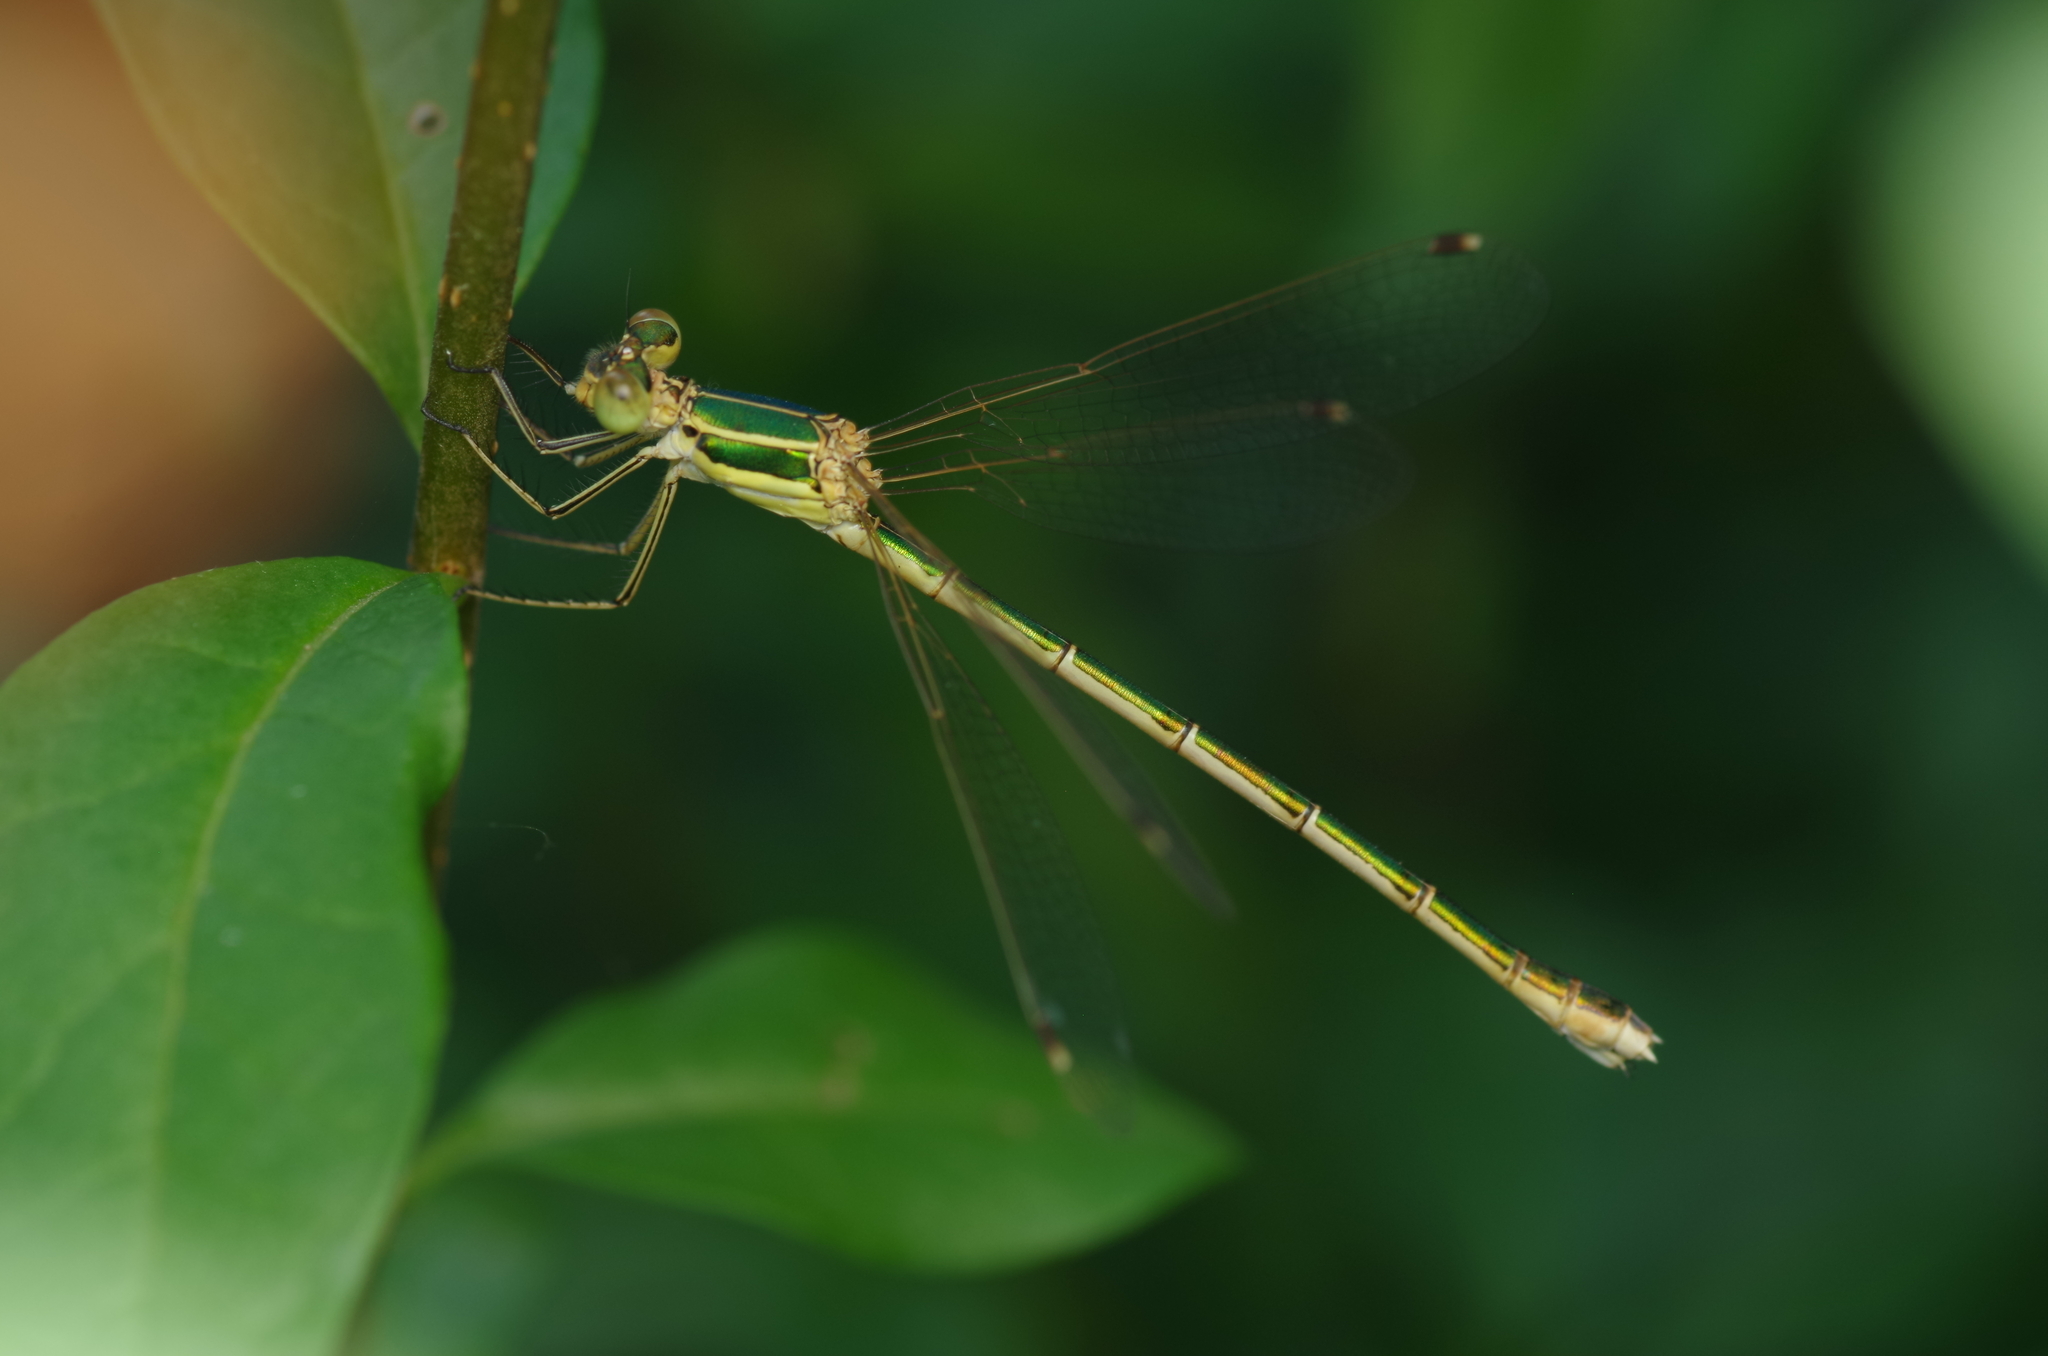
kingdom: Animalia
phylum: Arthropoda
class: Insecta
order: Odonata
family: Lestidae
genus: Lestes
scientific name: Lestes barbarus
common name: Migrant spreadwing
